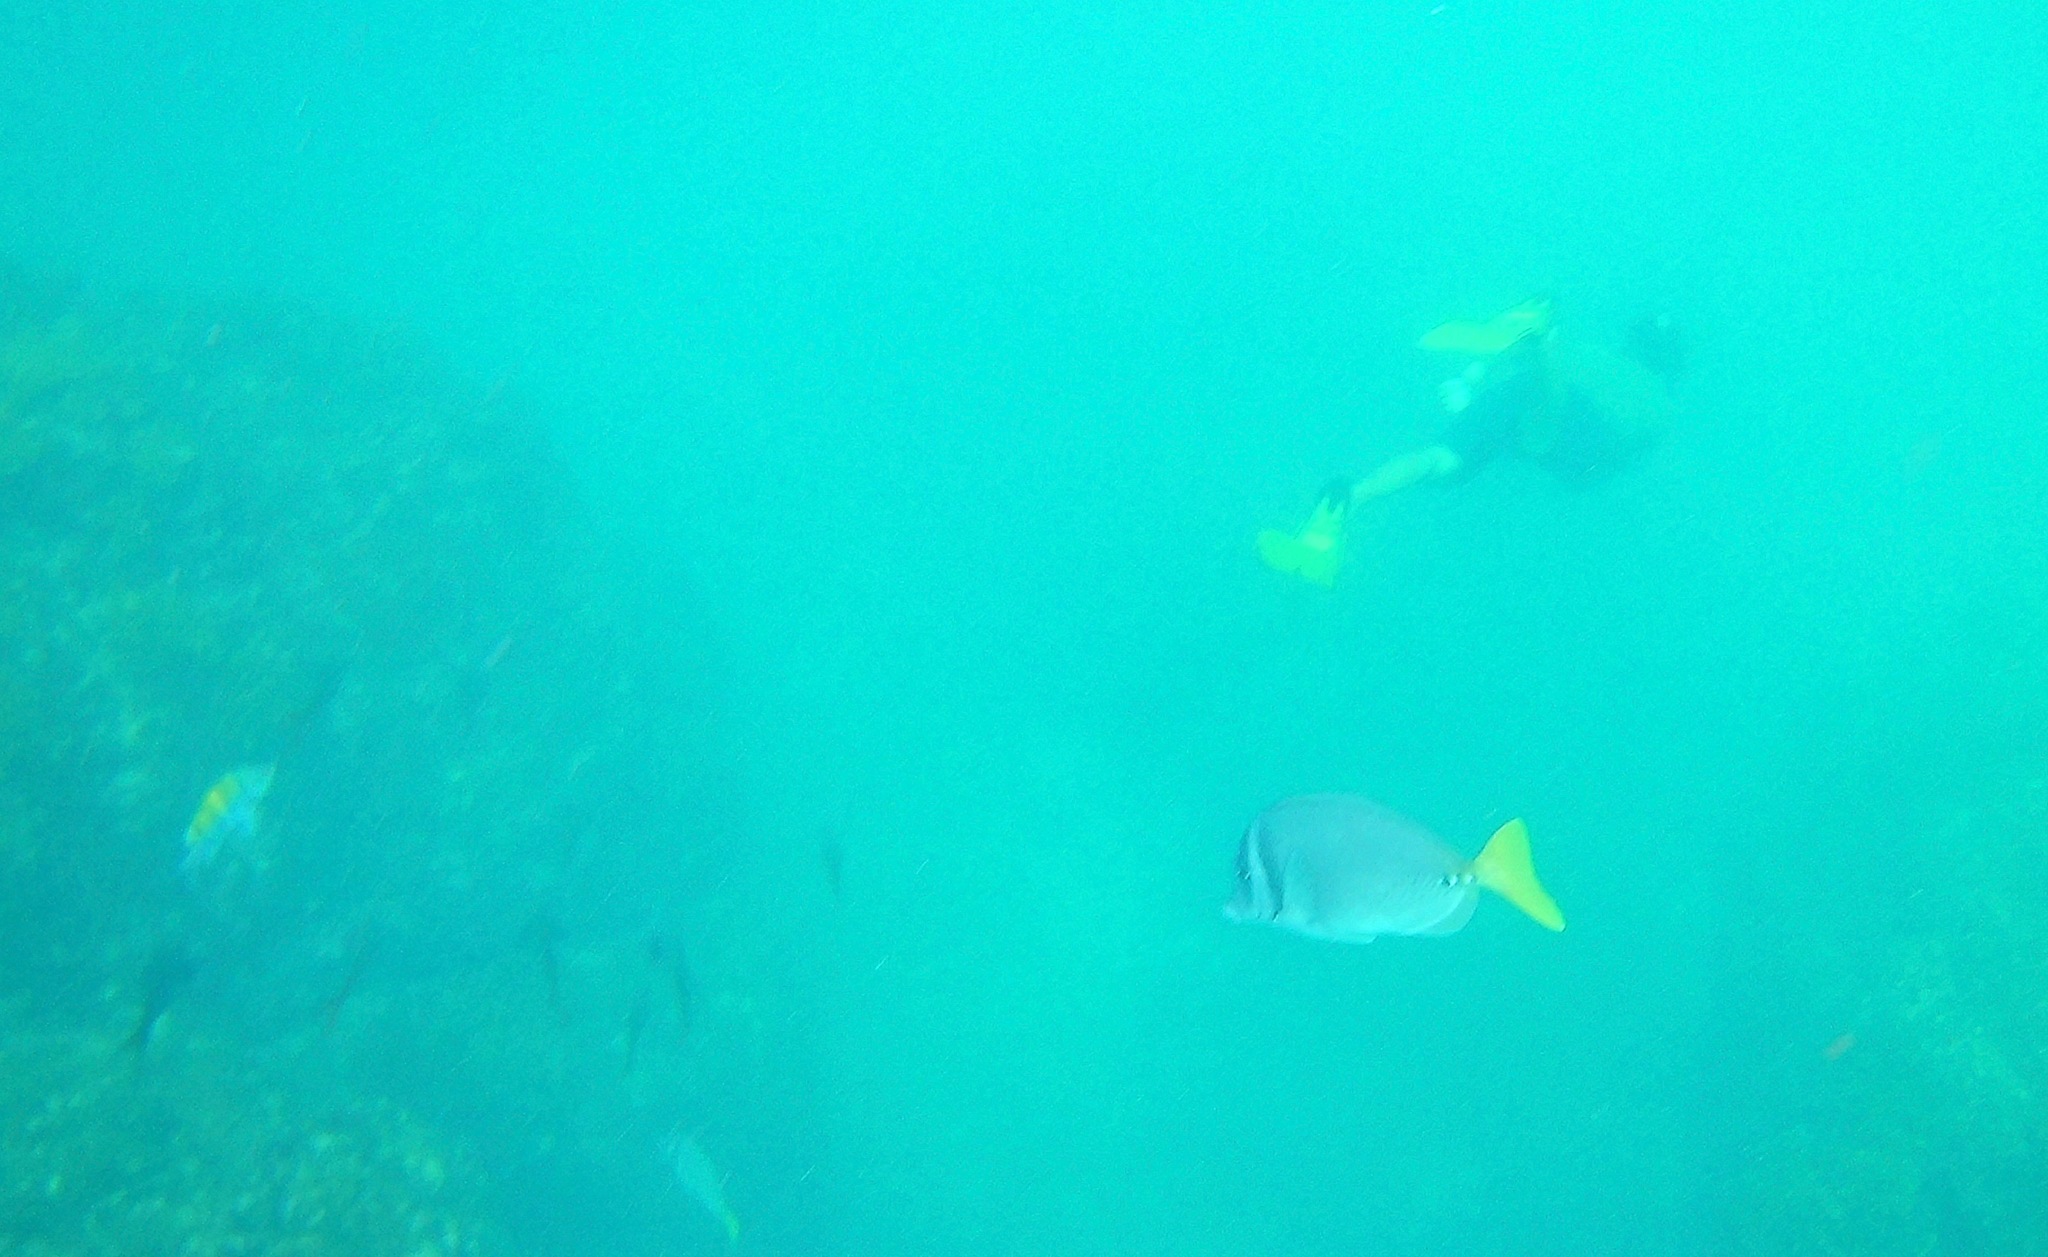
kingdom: Animalia
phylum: Chordata
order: Perciformes
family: Acanthuridae
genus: Prionurus
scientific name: Prionurus laticlavius
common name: Razor surgeonfish
